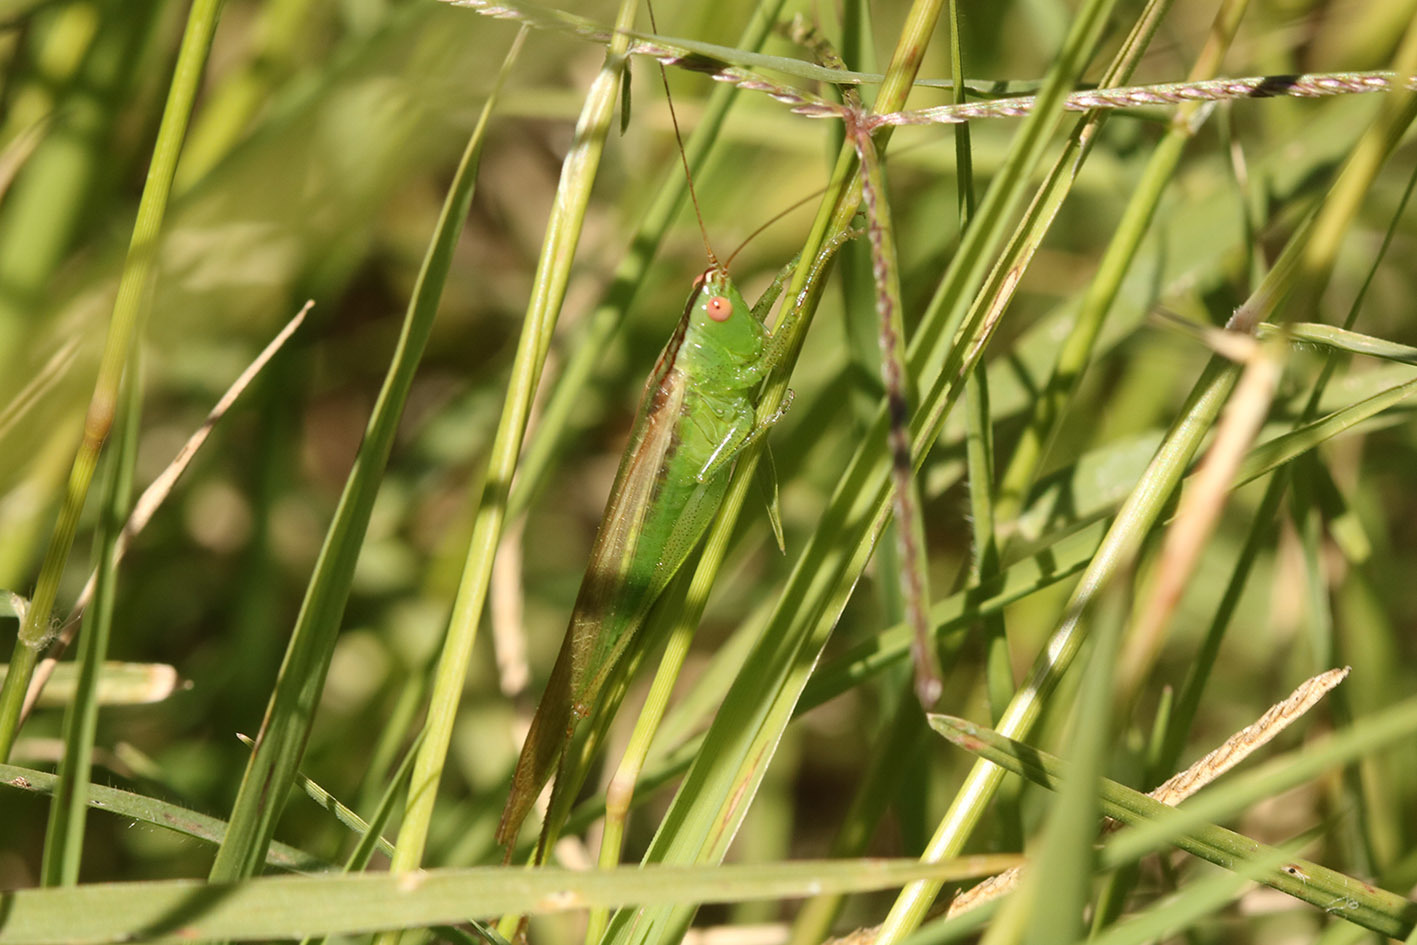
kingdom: Animalia
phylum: Arthropoda
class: Insecta
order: Orthoptera
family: Tettigoniidae
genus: Conocephalus
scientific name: Conocephalus longipes
